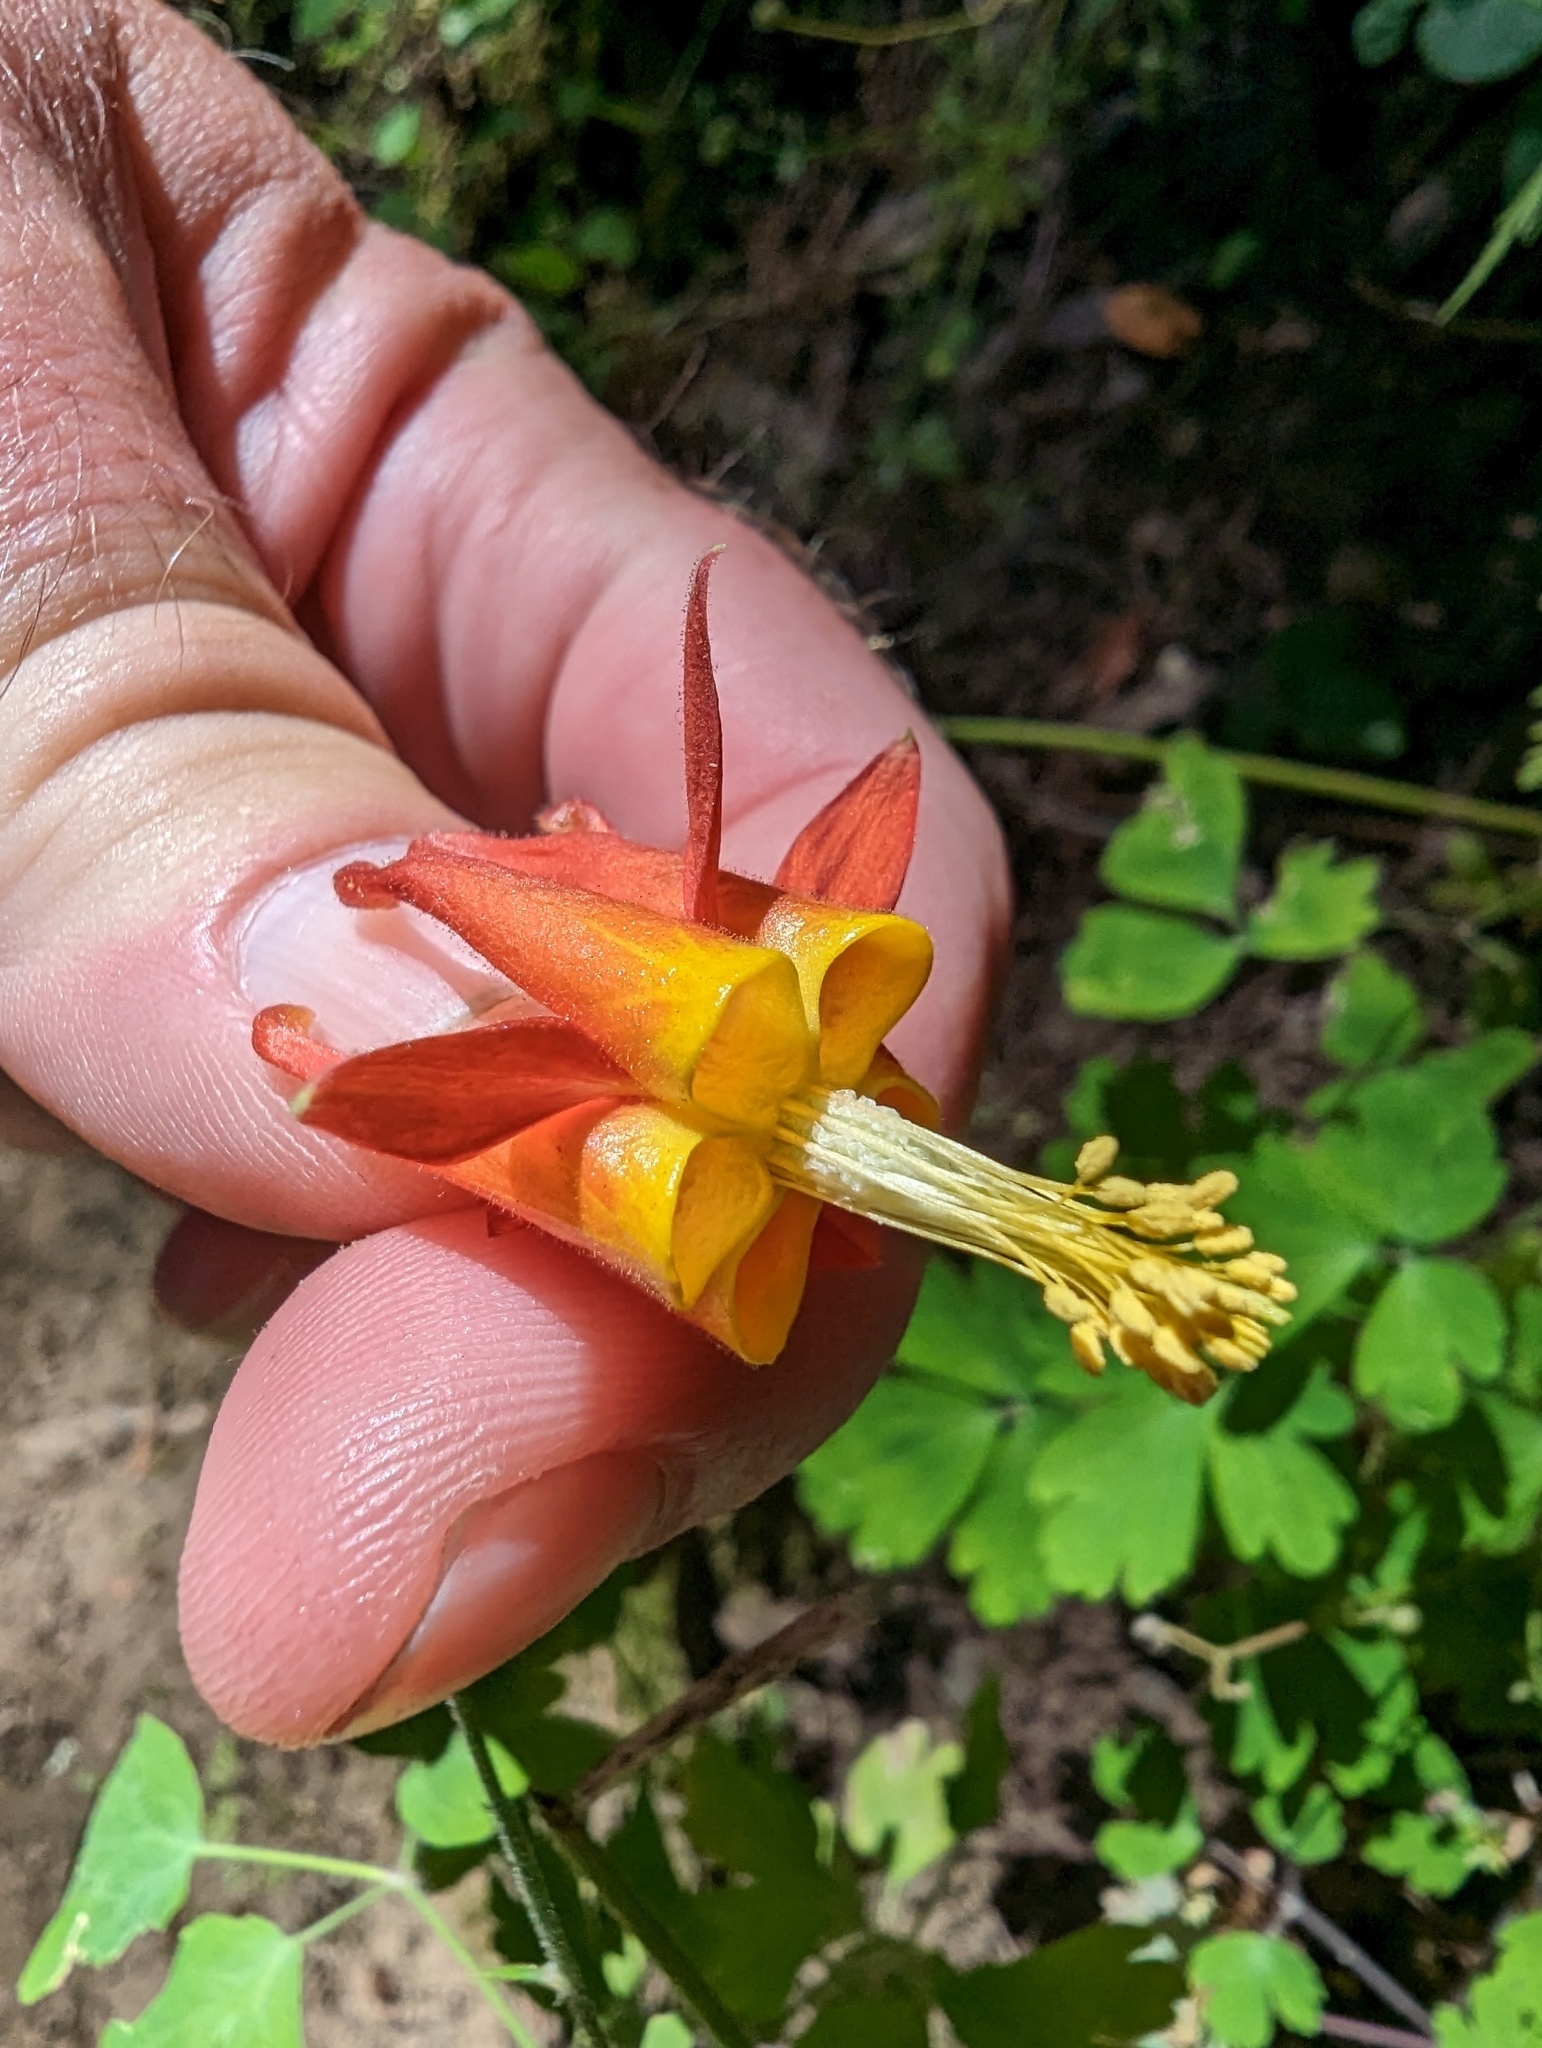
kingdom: Plantae
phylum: Tracheophyta
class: Magnoliopsida
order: Ranunculales
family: Ranunculaceae
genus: Aquilegia
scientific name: Aquilegia formosa
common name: Sitka columbine
